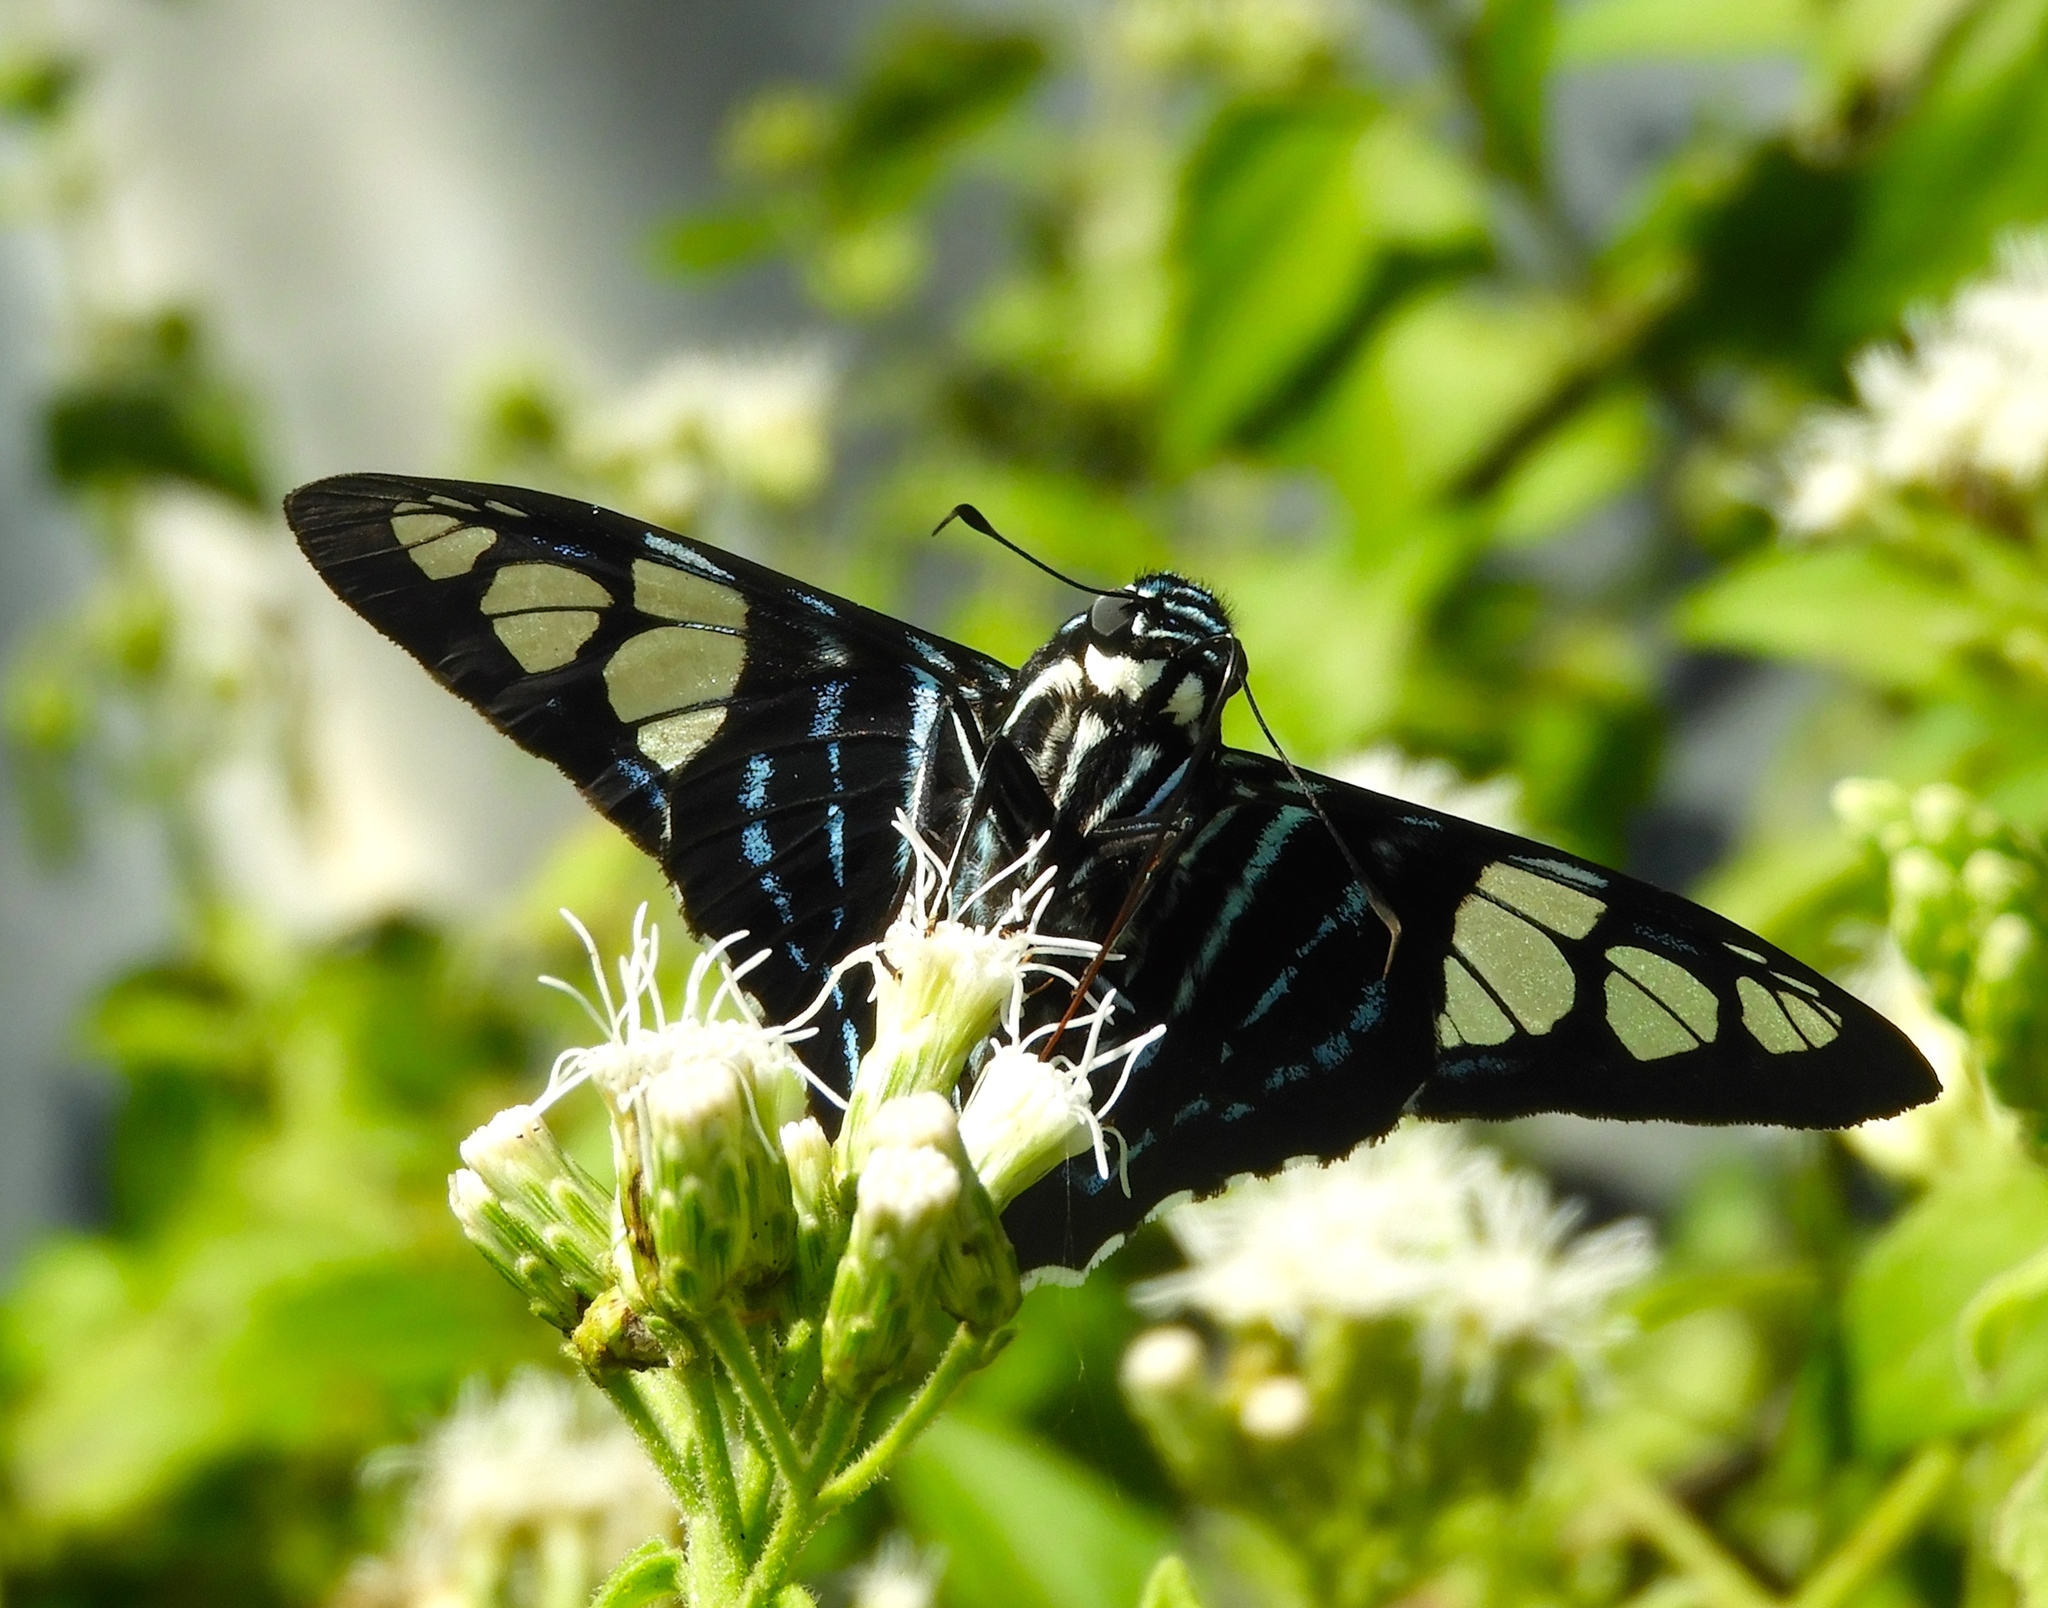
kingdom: Animalia
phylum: Arthropoda
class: Insecta
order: Lepidoptera
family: Hesperiidae
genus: Phocides
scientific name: Phocides pigmalion
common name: Mangrove skipper
